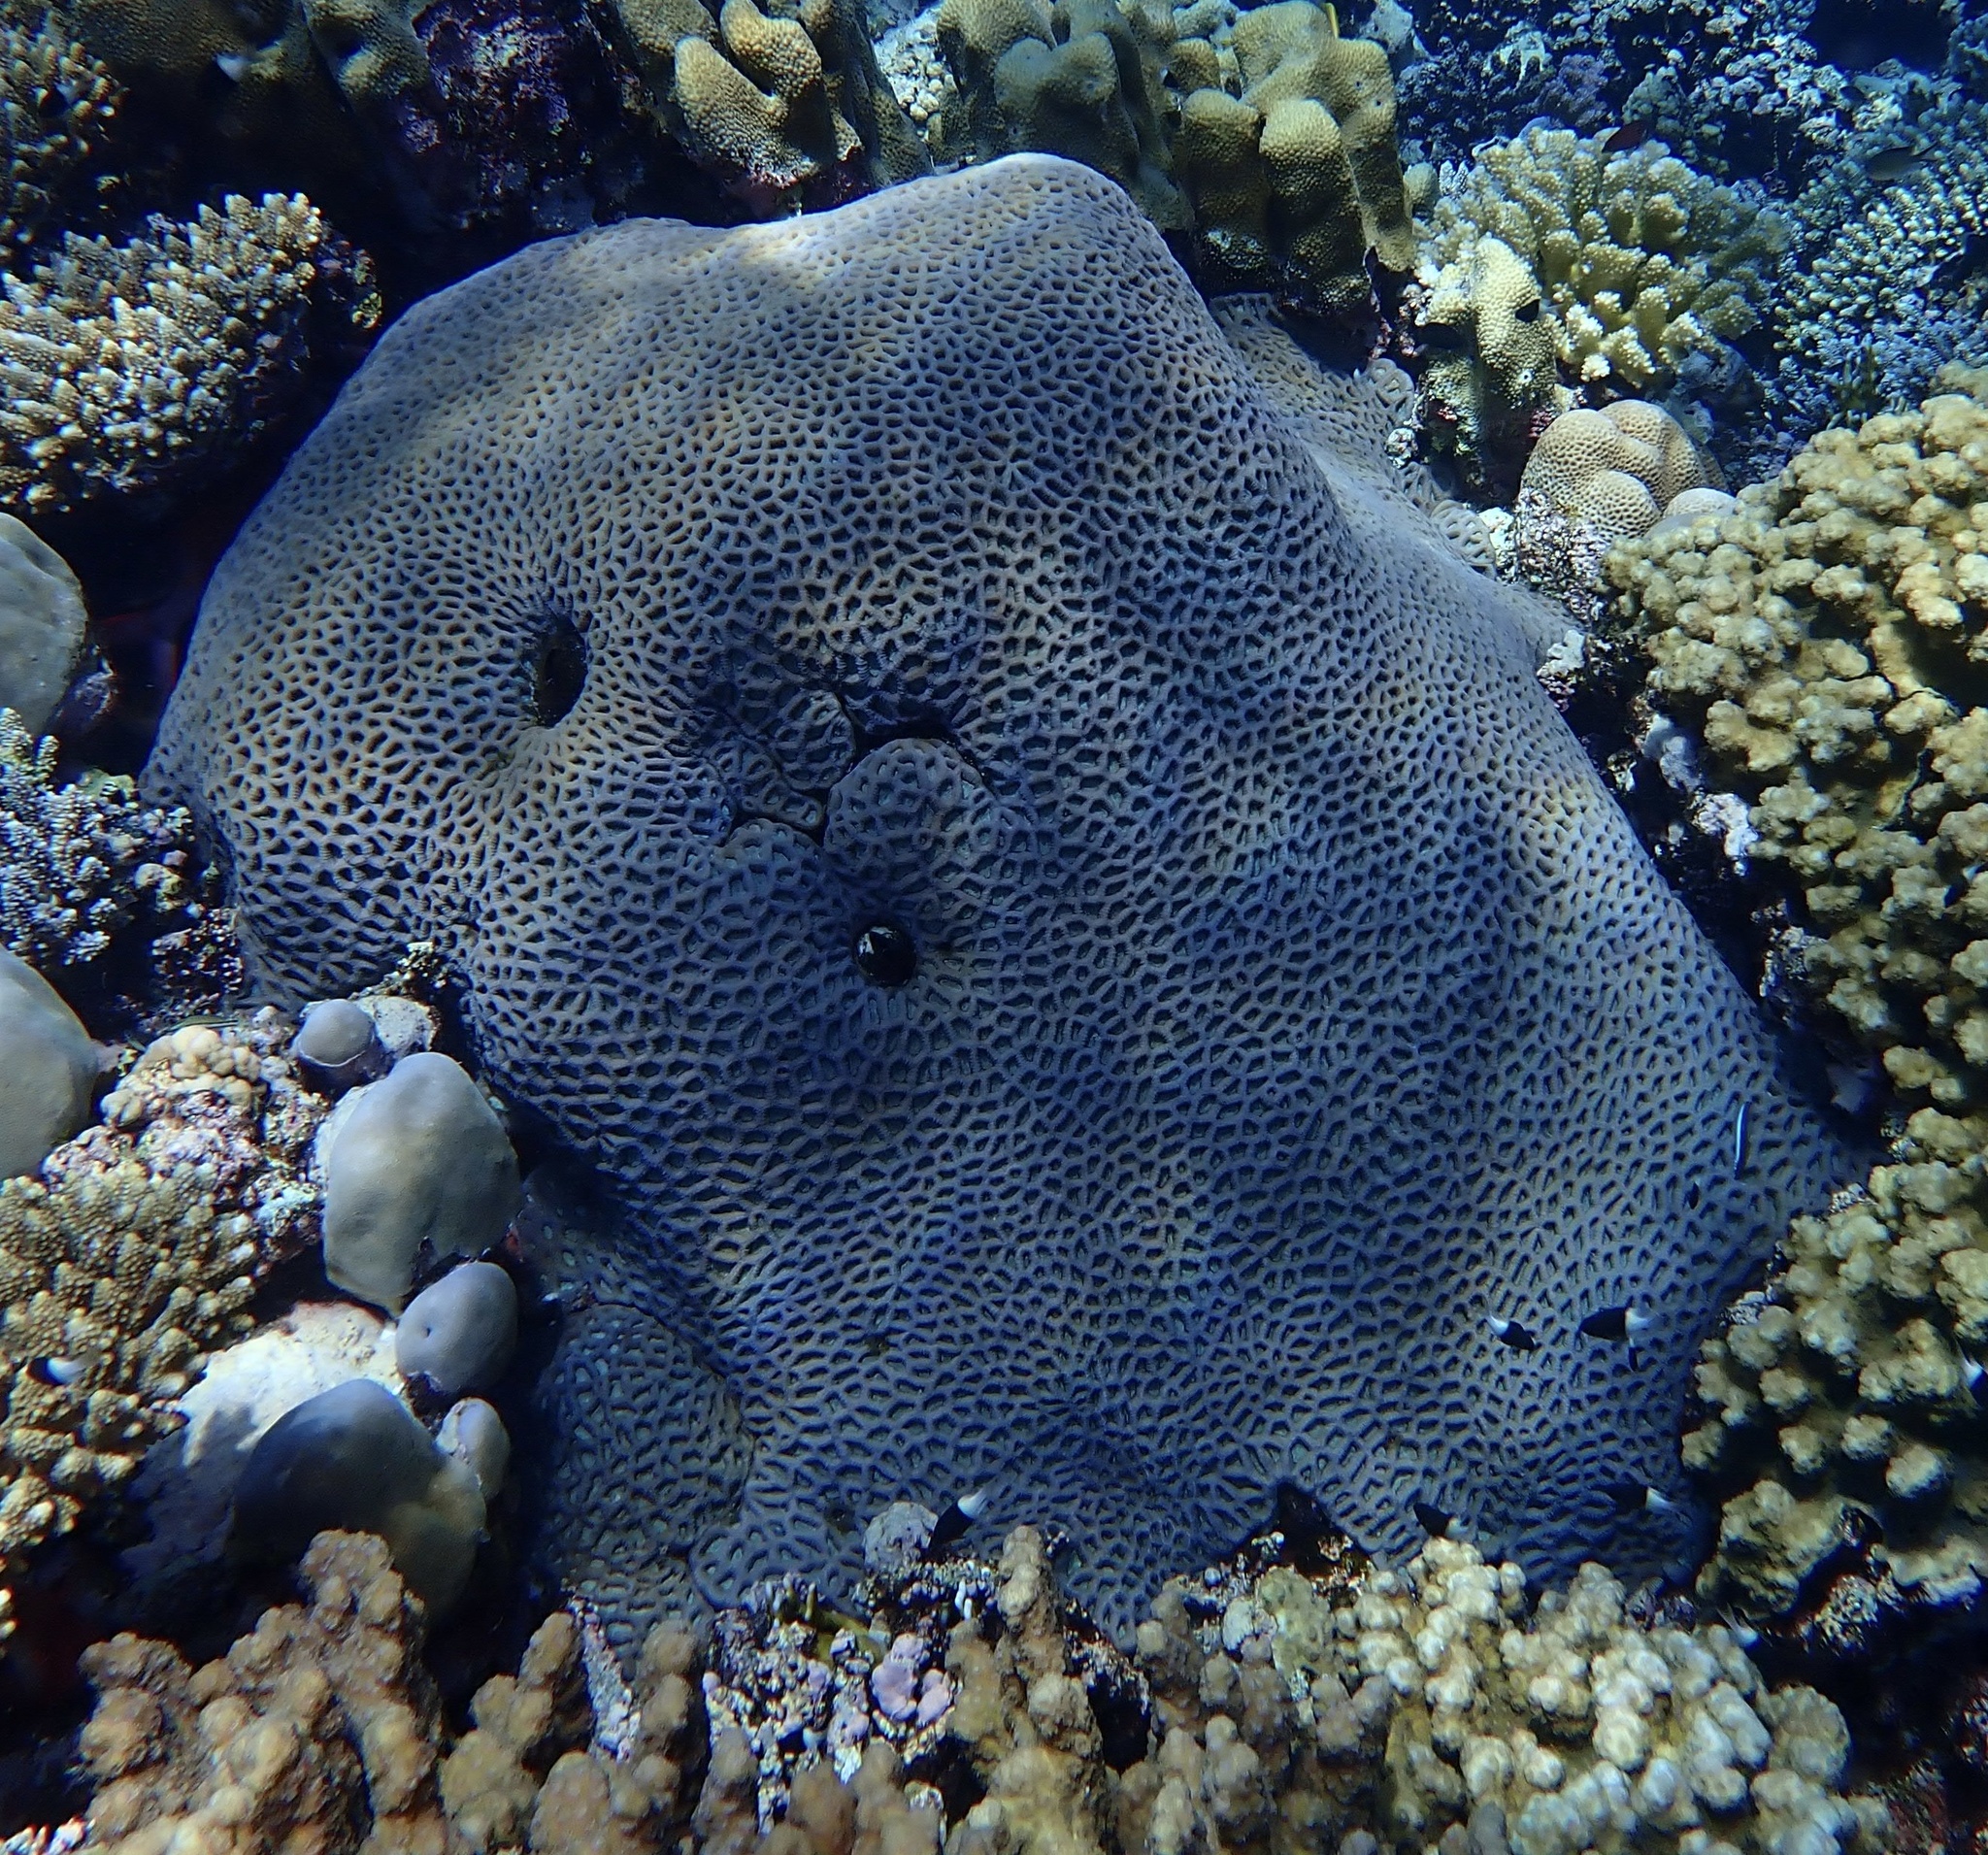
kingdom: Animalia
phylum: Cnidaria
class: Anthozoa
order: Scleractinia
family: Merulinidae
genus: Favites
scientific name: Favites vasta
